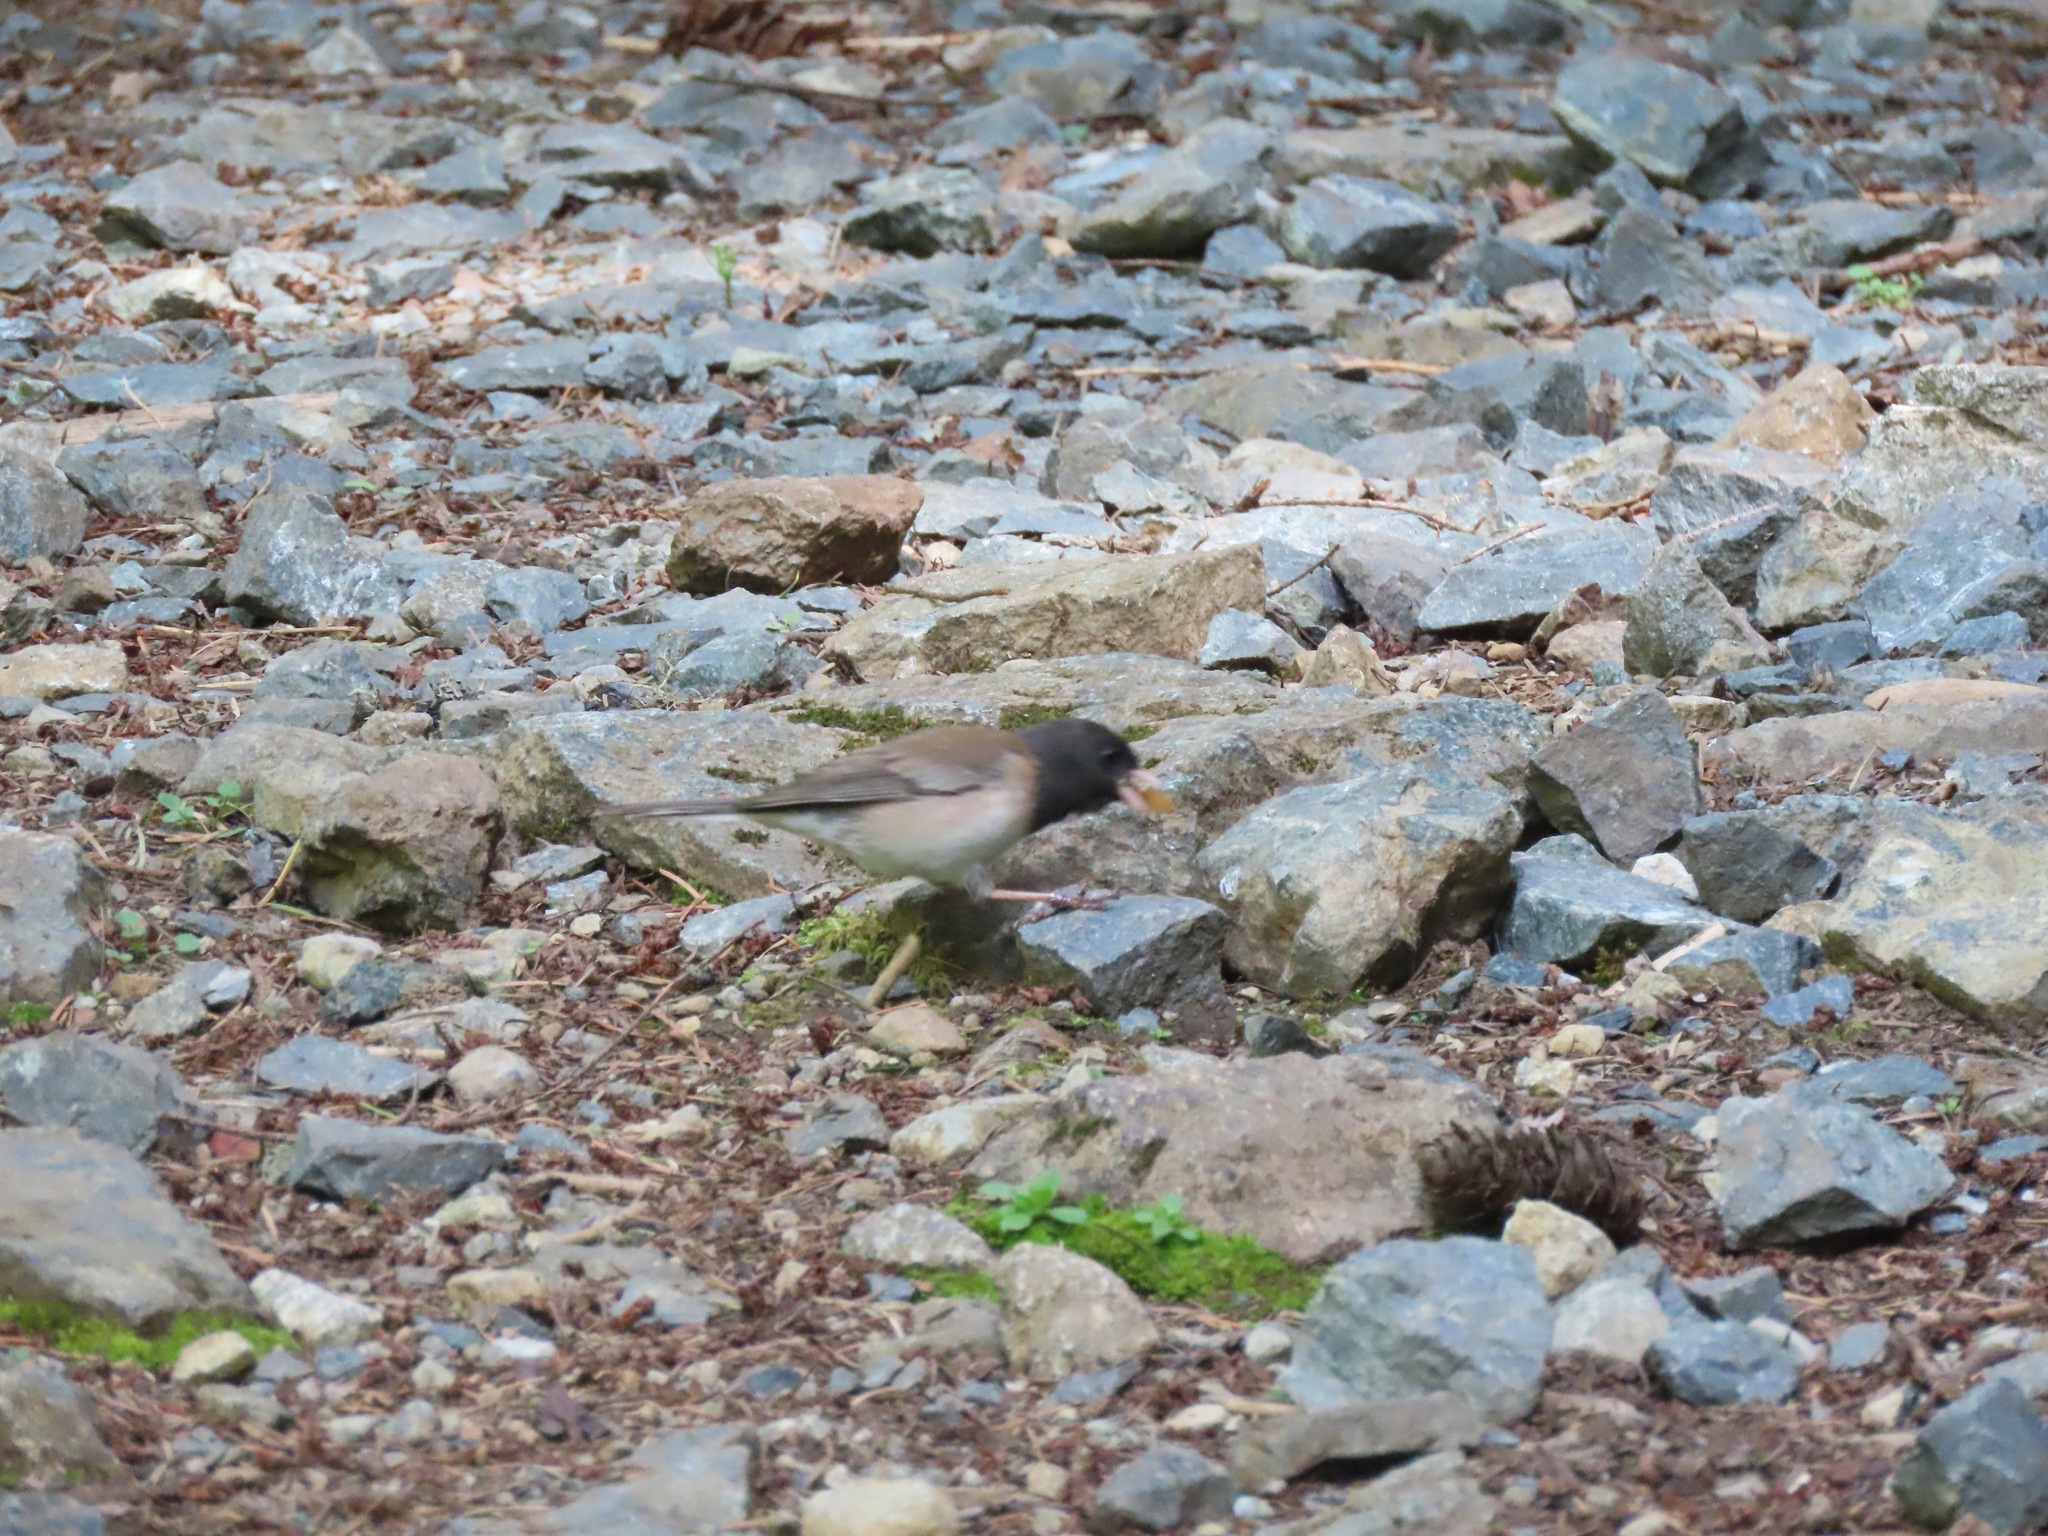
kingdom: Animalia
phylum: Chordata
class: Aves
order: Passeriformes
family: Passerellidae
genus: Junco
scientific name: Junco hyemalis
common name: Dark-eyed junco
